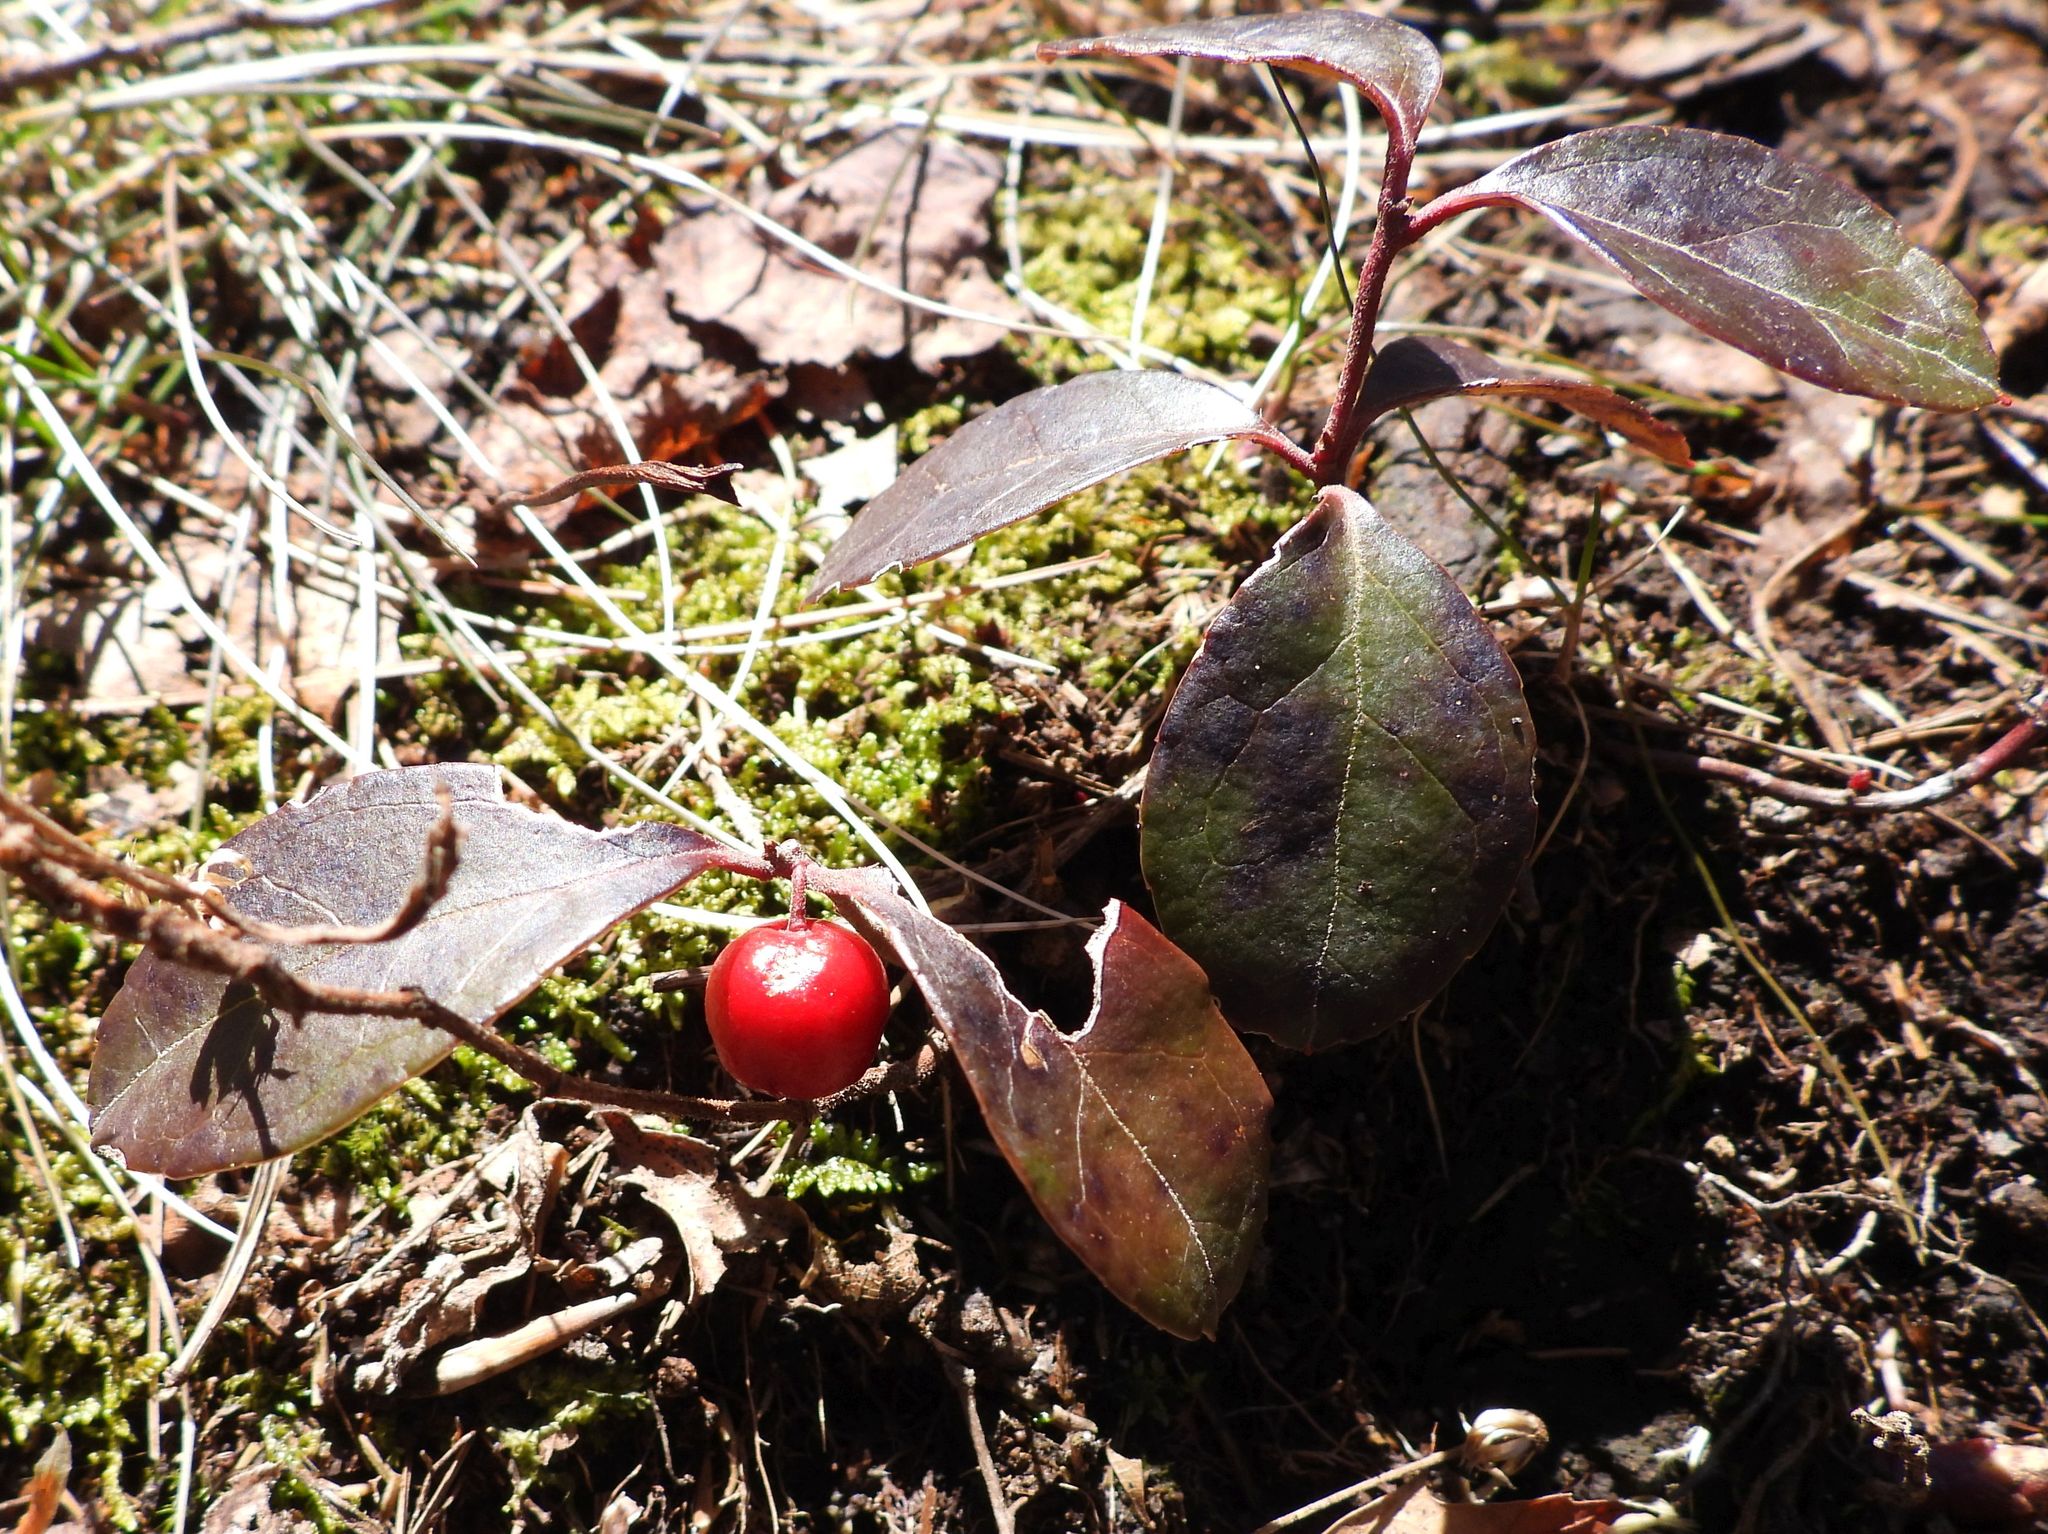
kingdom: Plantae
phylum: Tracheophyta
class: Magnoliopsida
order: Ericales
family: Ericaceae
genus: Gaultheria
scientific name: Gaultheria procumbens
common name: Checkerberry
